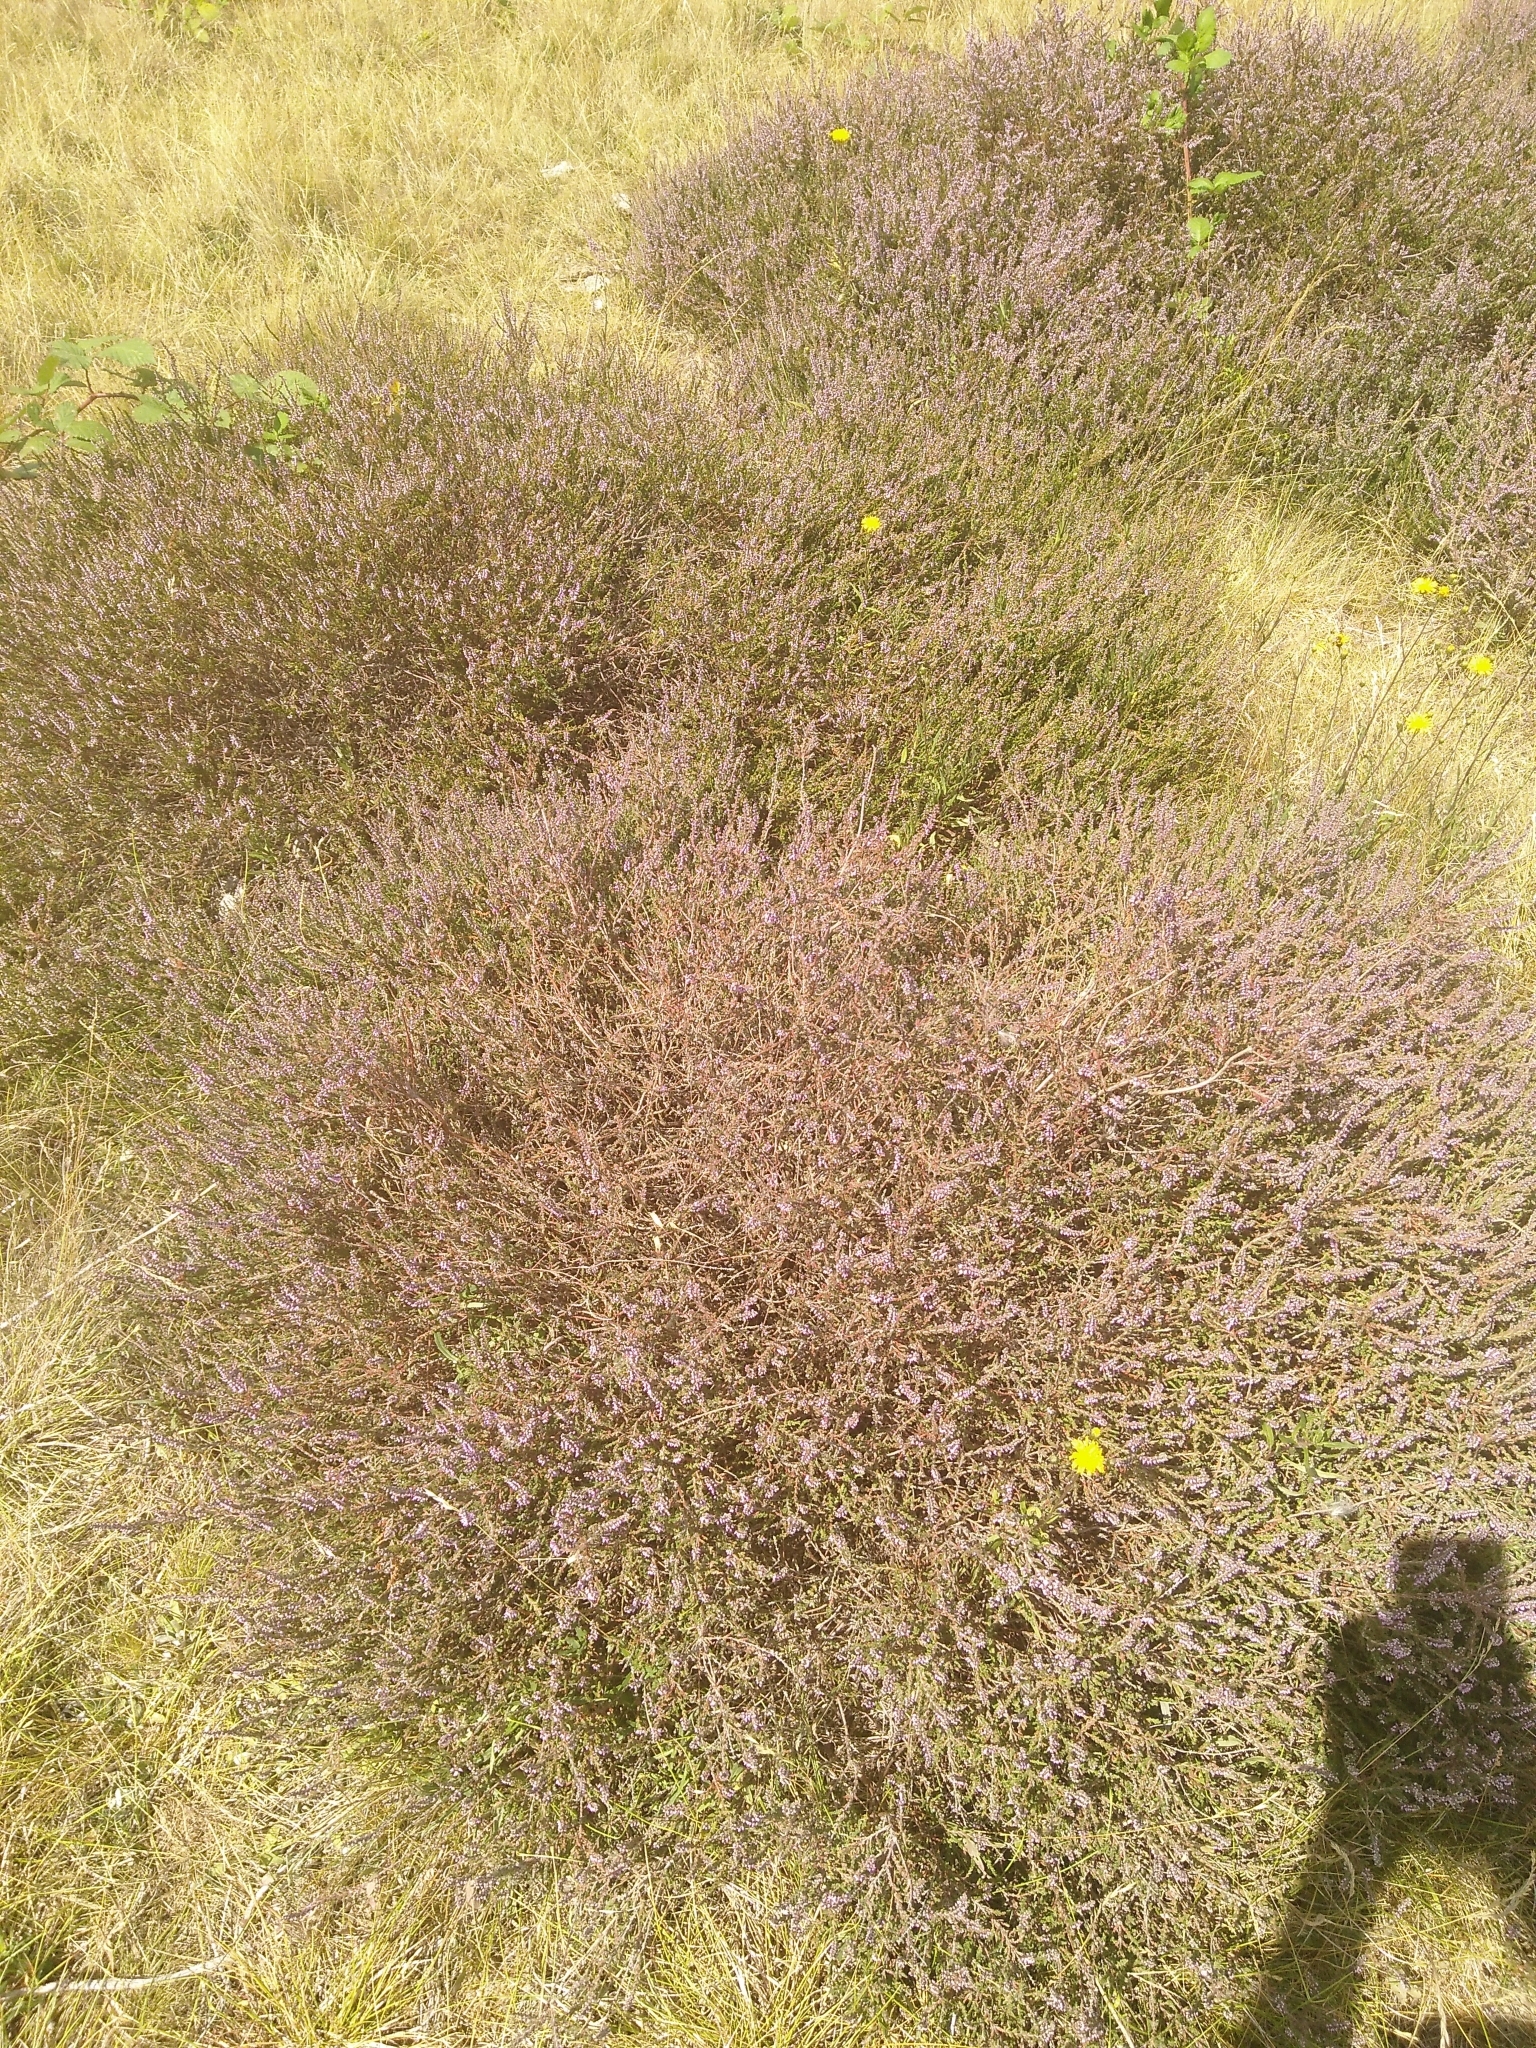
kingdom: Plantae
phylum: Tracheophyta
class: Magnoliopsida
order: Ericales
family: Ericaceae
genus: Calluna
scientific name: Calluna vulgaris
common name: Heather
